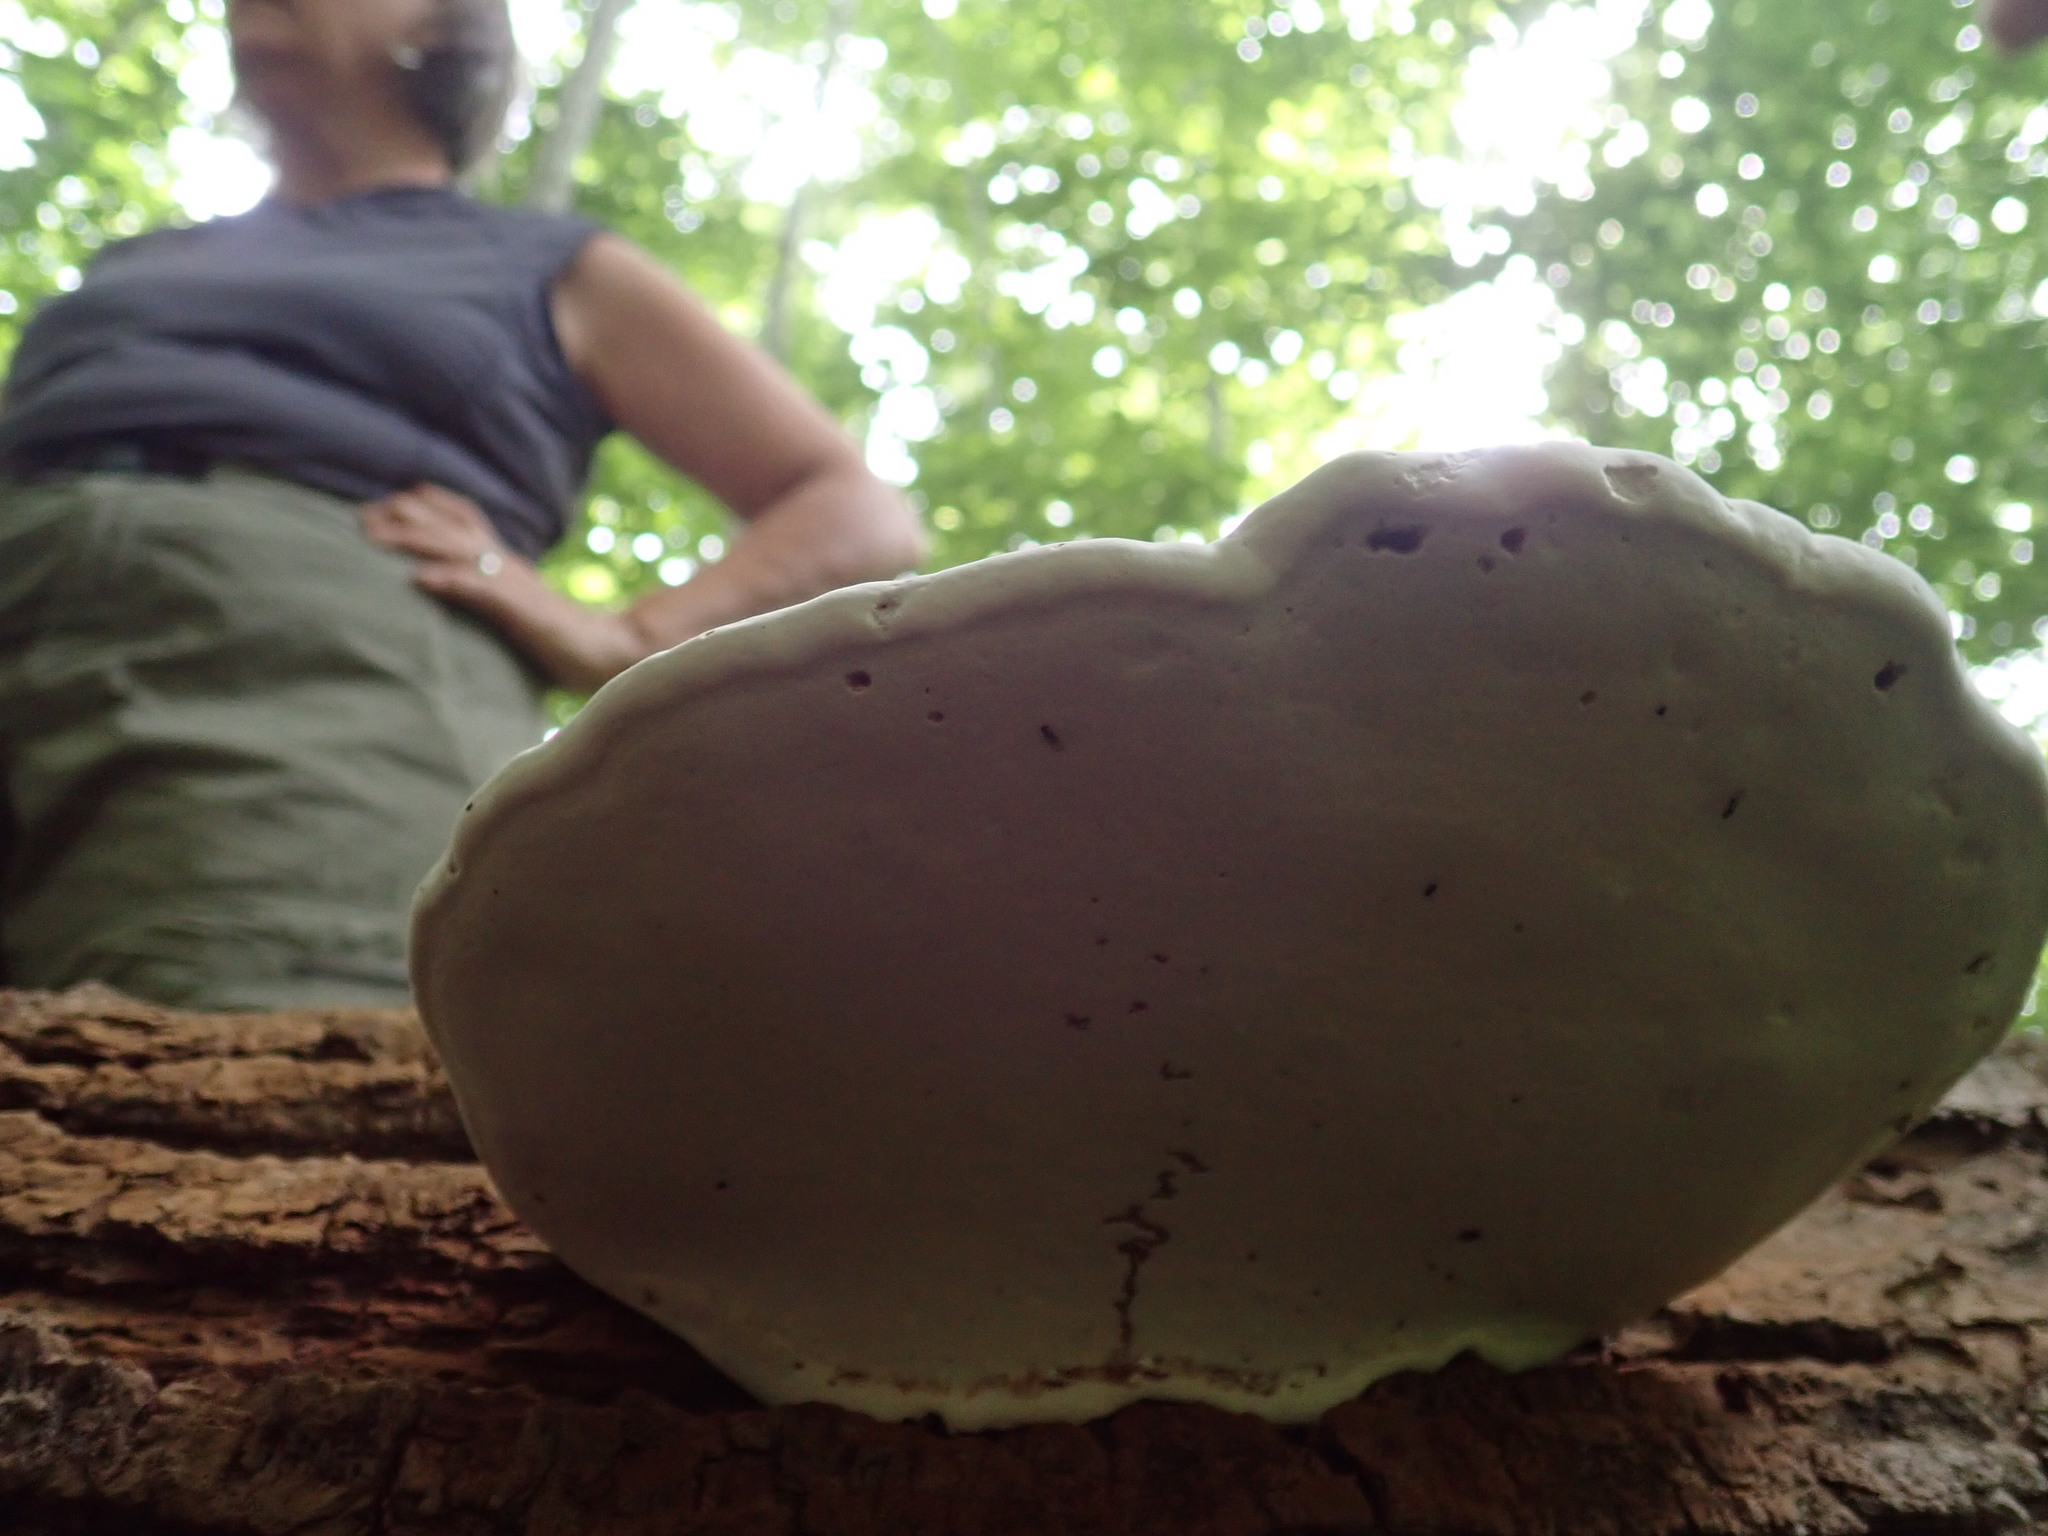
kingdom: Fungi
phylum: Basidiomycota
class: Agaricomycetes
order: Polyporales
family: Polyporaceae
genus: Ganoderma
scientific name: Ganoderma applanatum
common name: Artist's bracket
